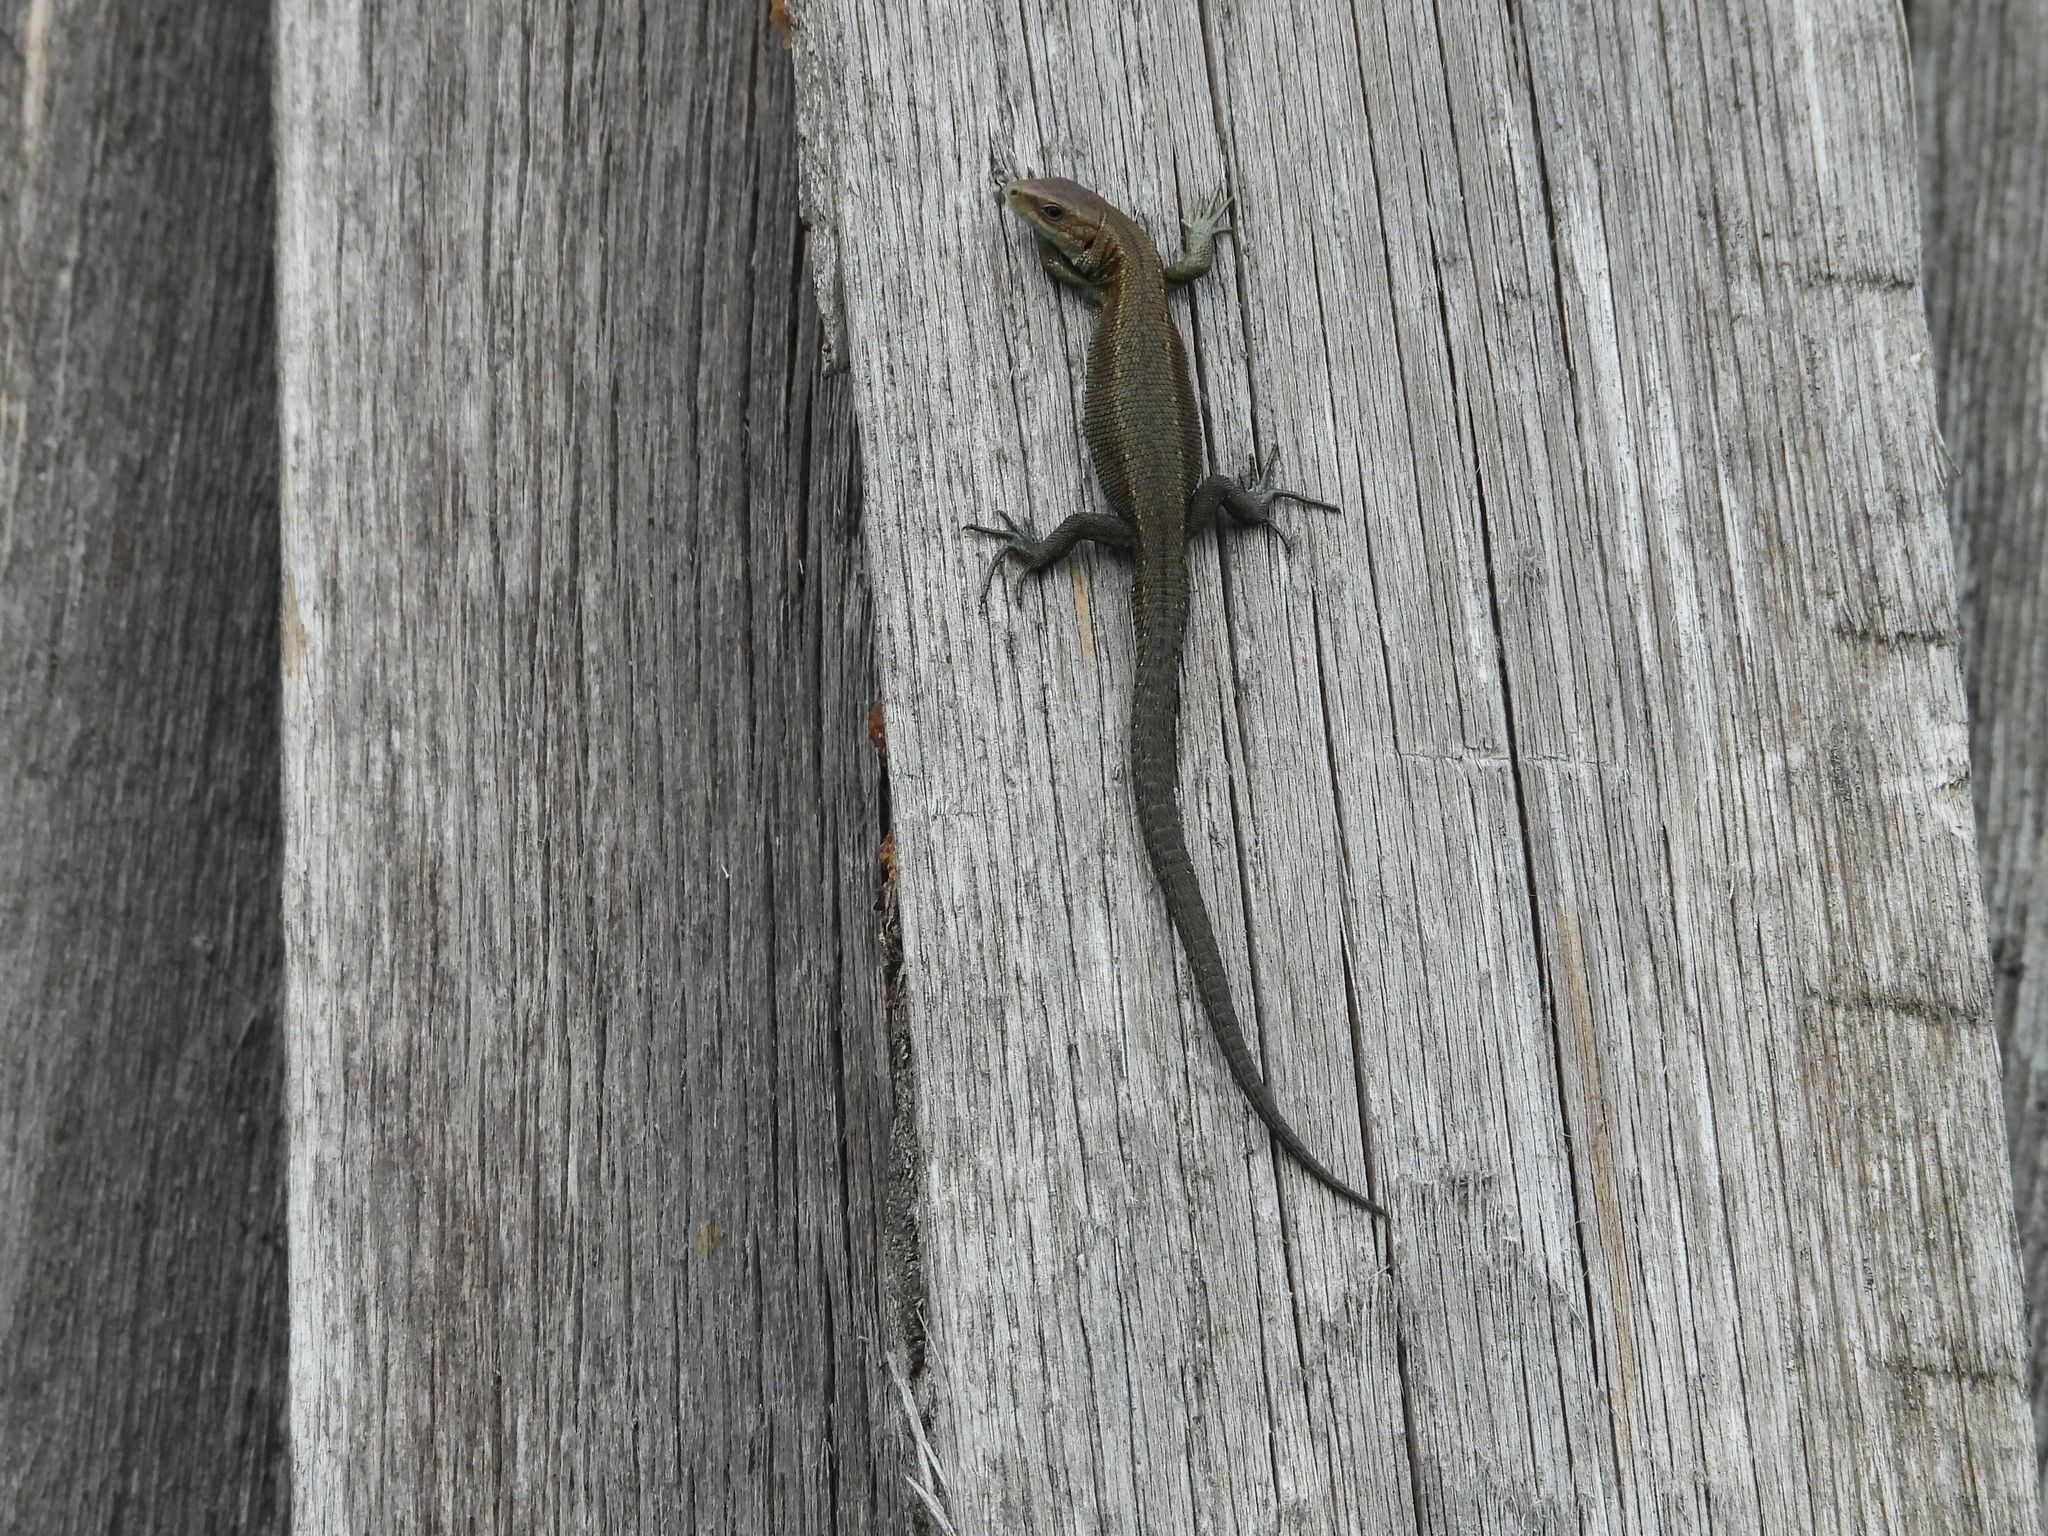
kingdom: Animalia
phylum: Chordata
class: Squamata
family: Lacertidae
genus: Zootoca
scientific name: Zootoca vivipara
